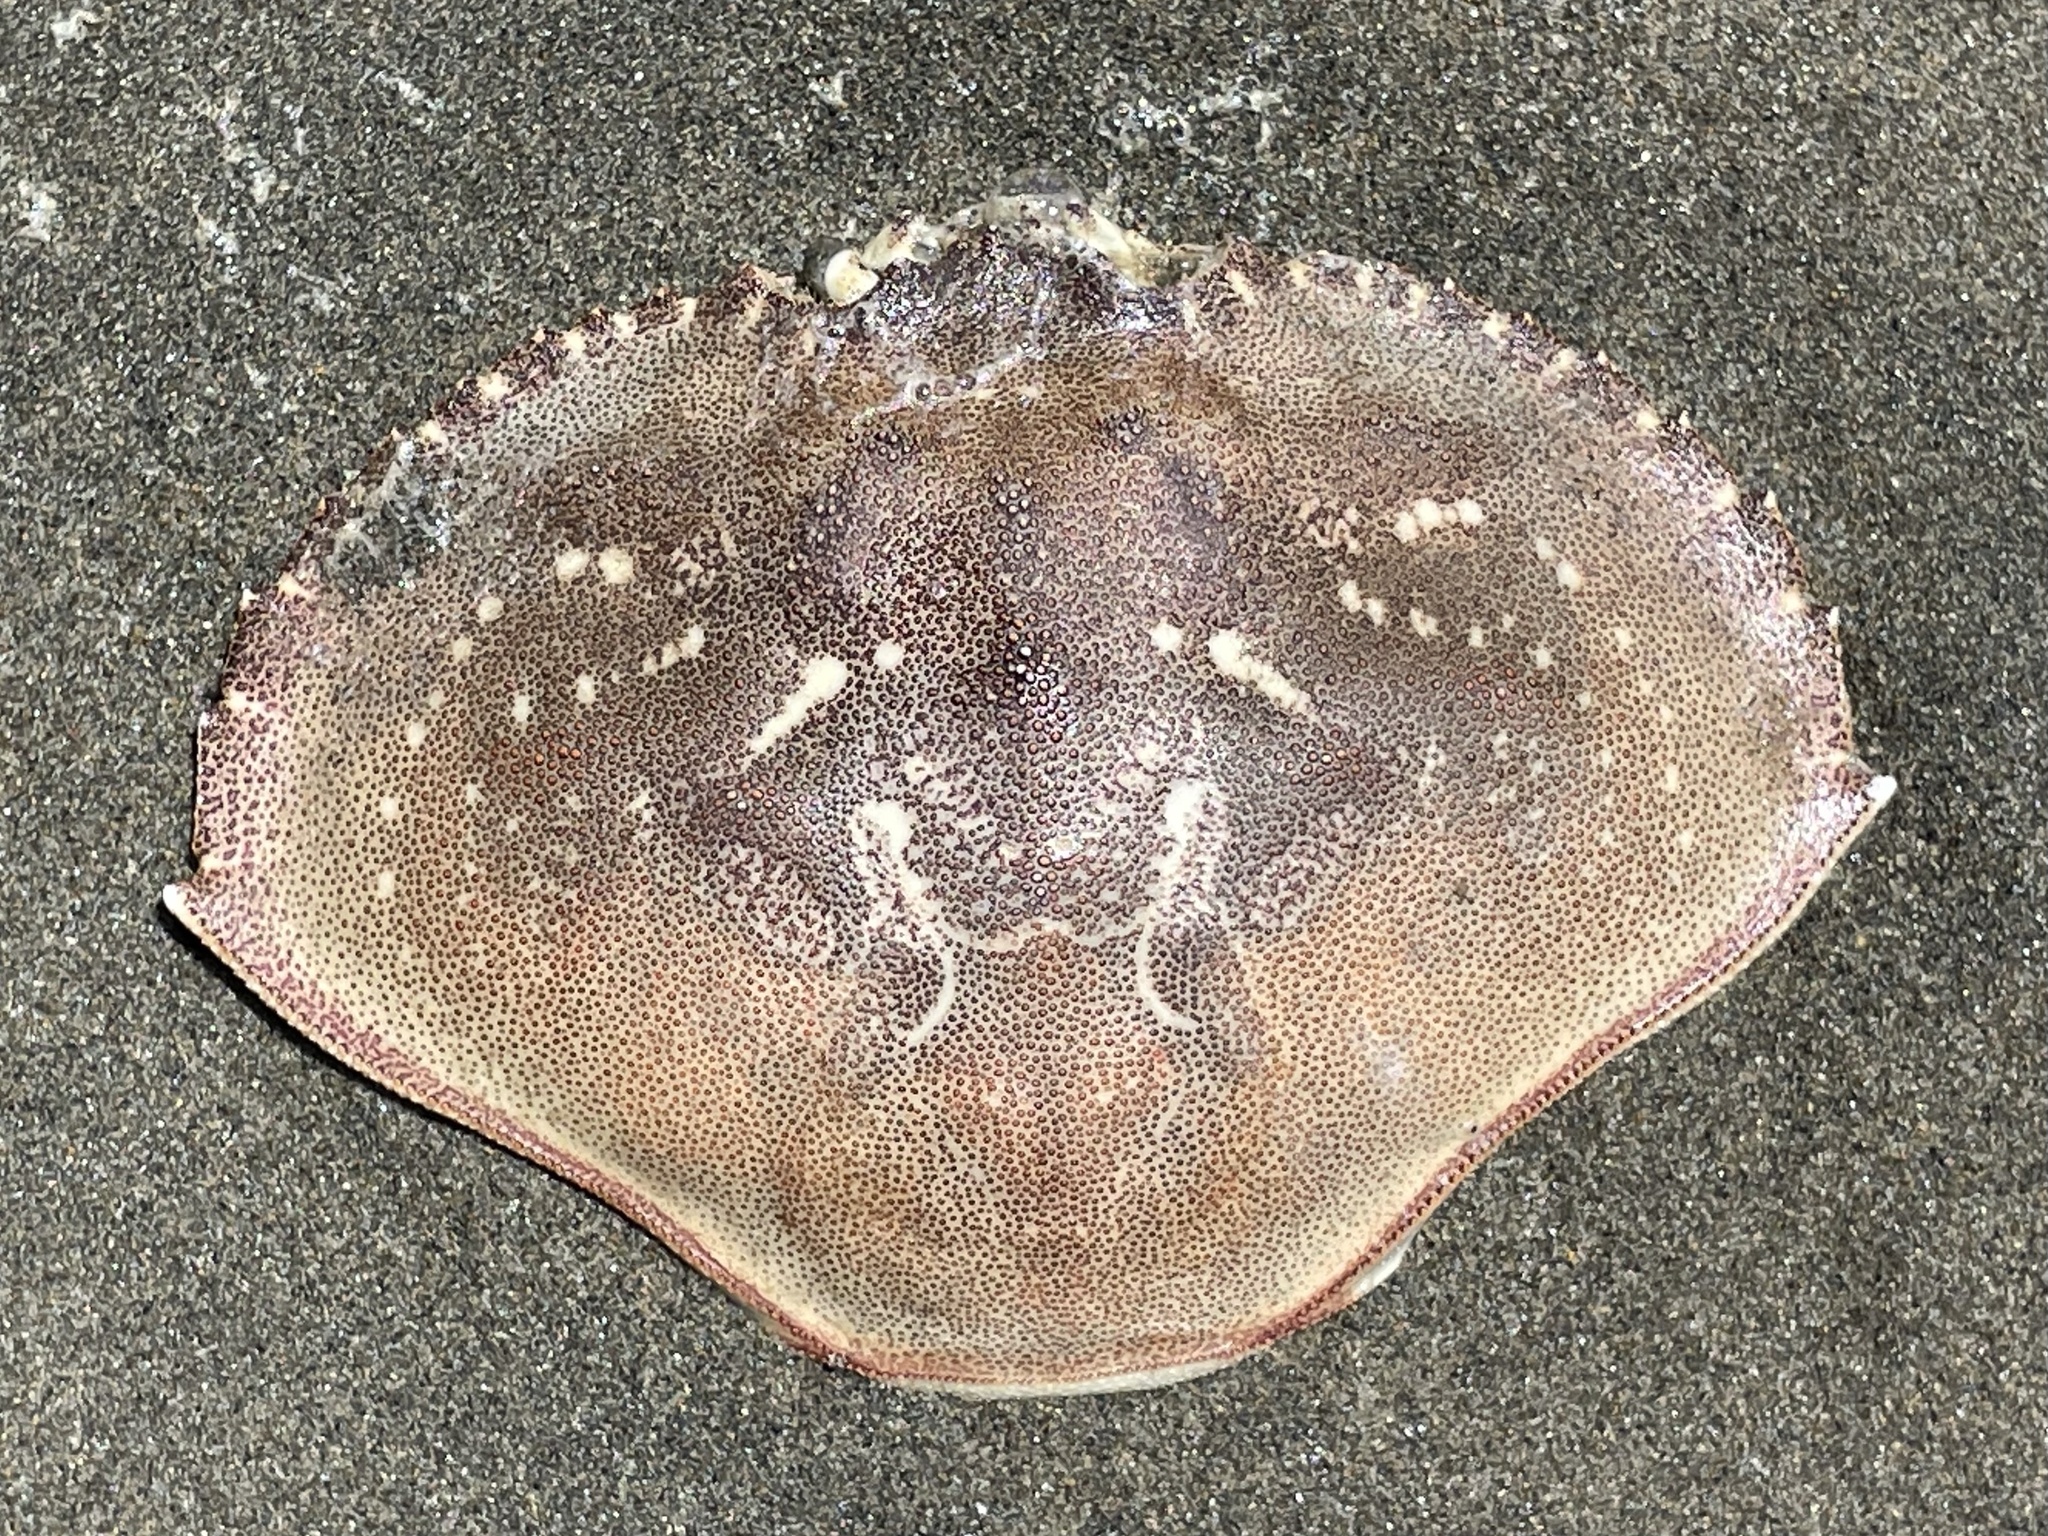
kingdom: Animalia
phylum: Arthropoda
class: Malacostraca
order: Decapoda
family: Cancridae
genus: Metacarcinus
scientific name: Metacarcinus magister
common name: Californian crab
